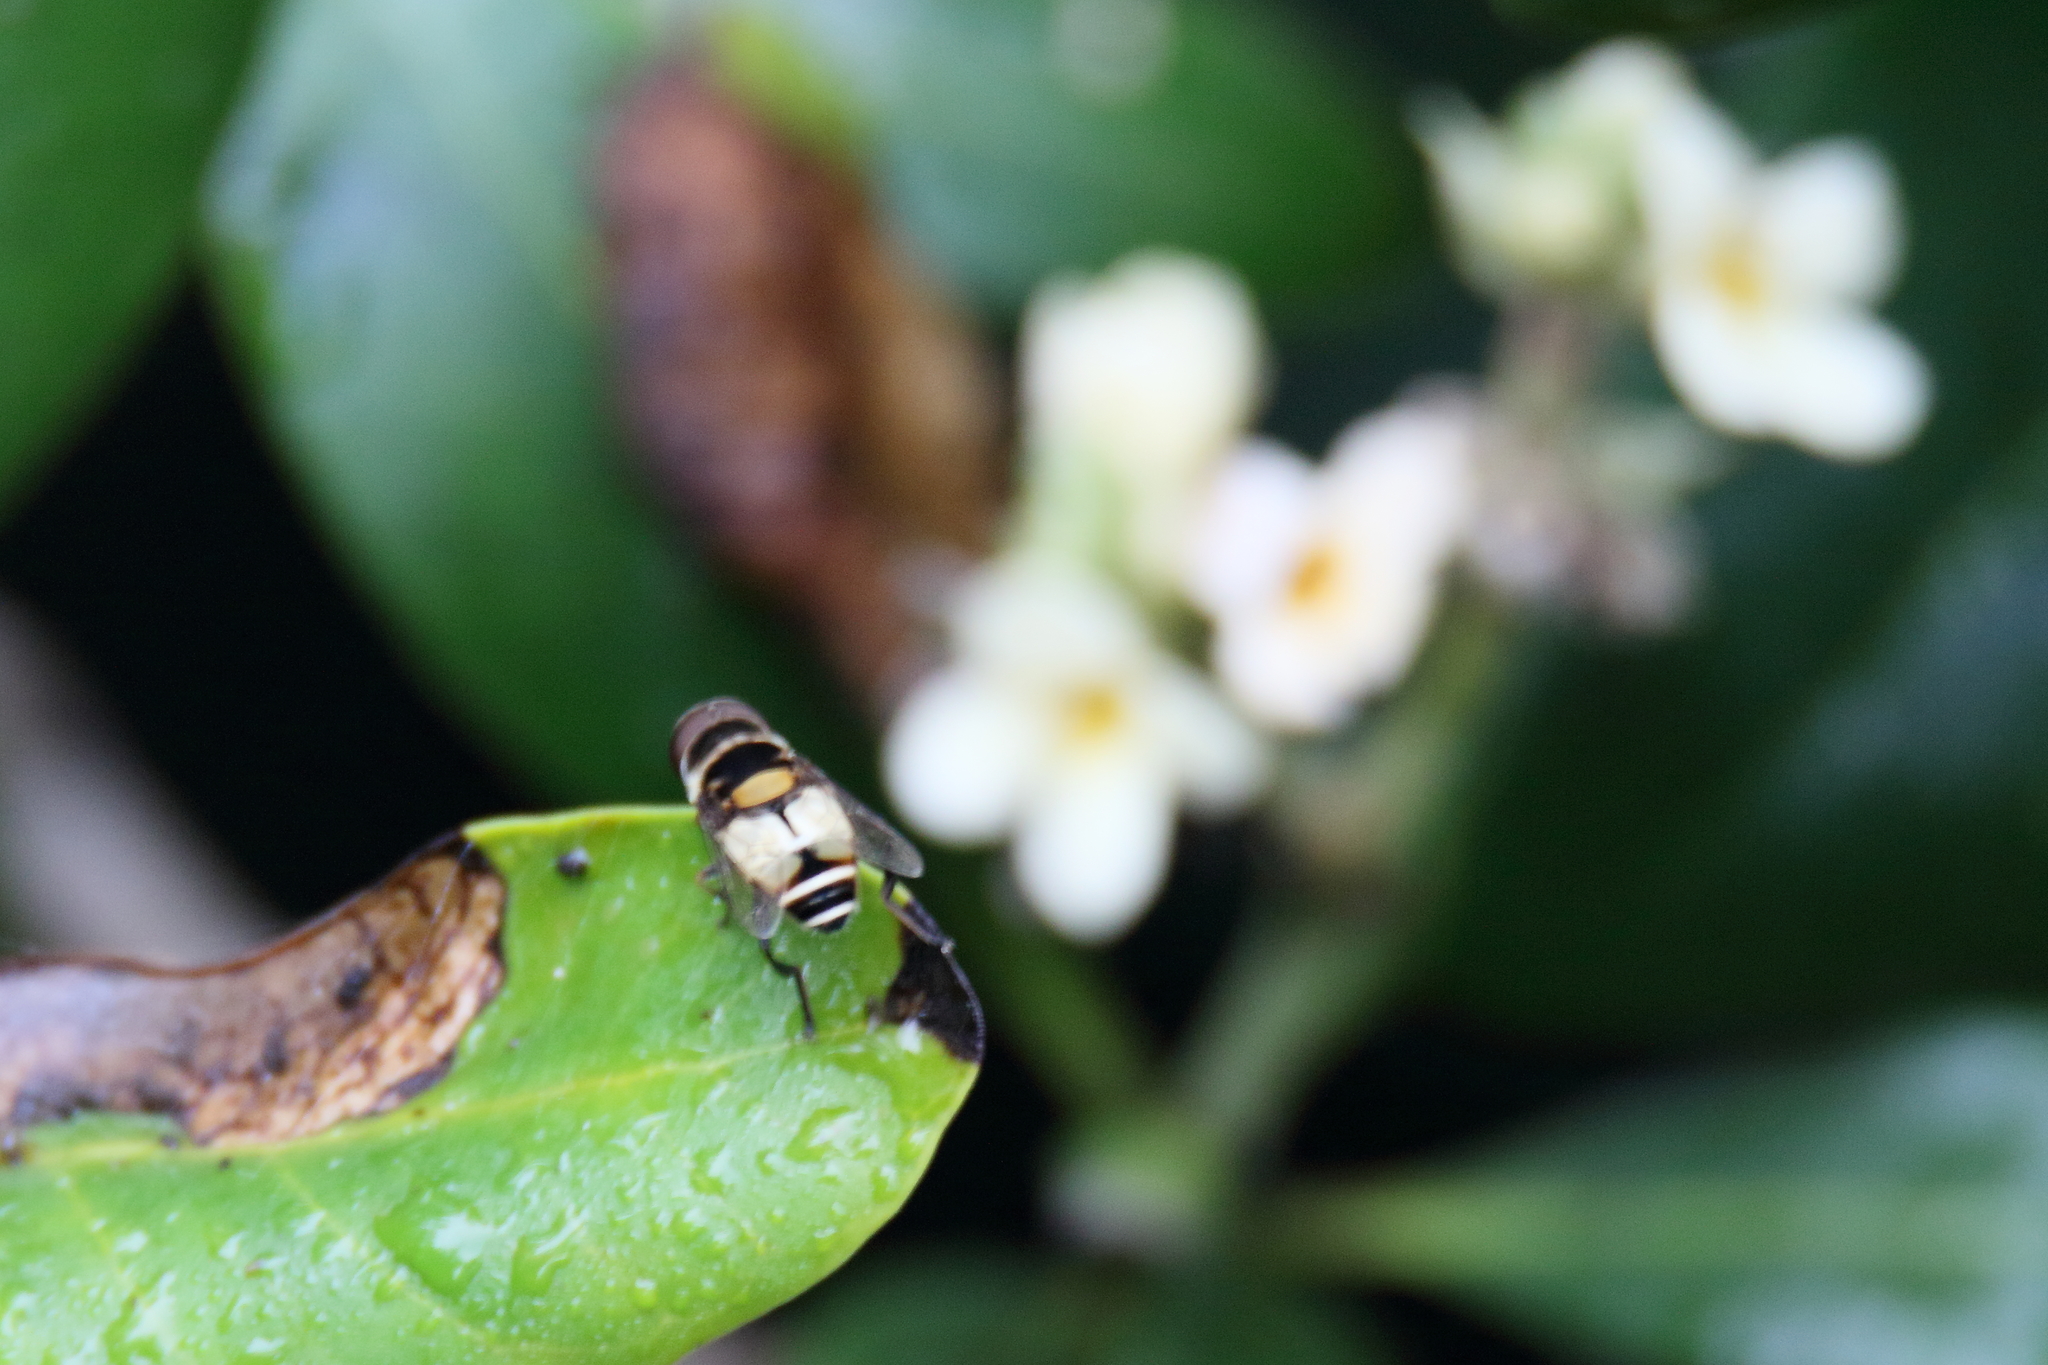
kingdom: Animalia
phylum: Arthropoda
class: Insecta
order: Diptera
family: Syrphidae
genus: Palpada
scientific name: Palpada albifrons
